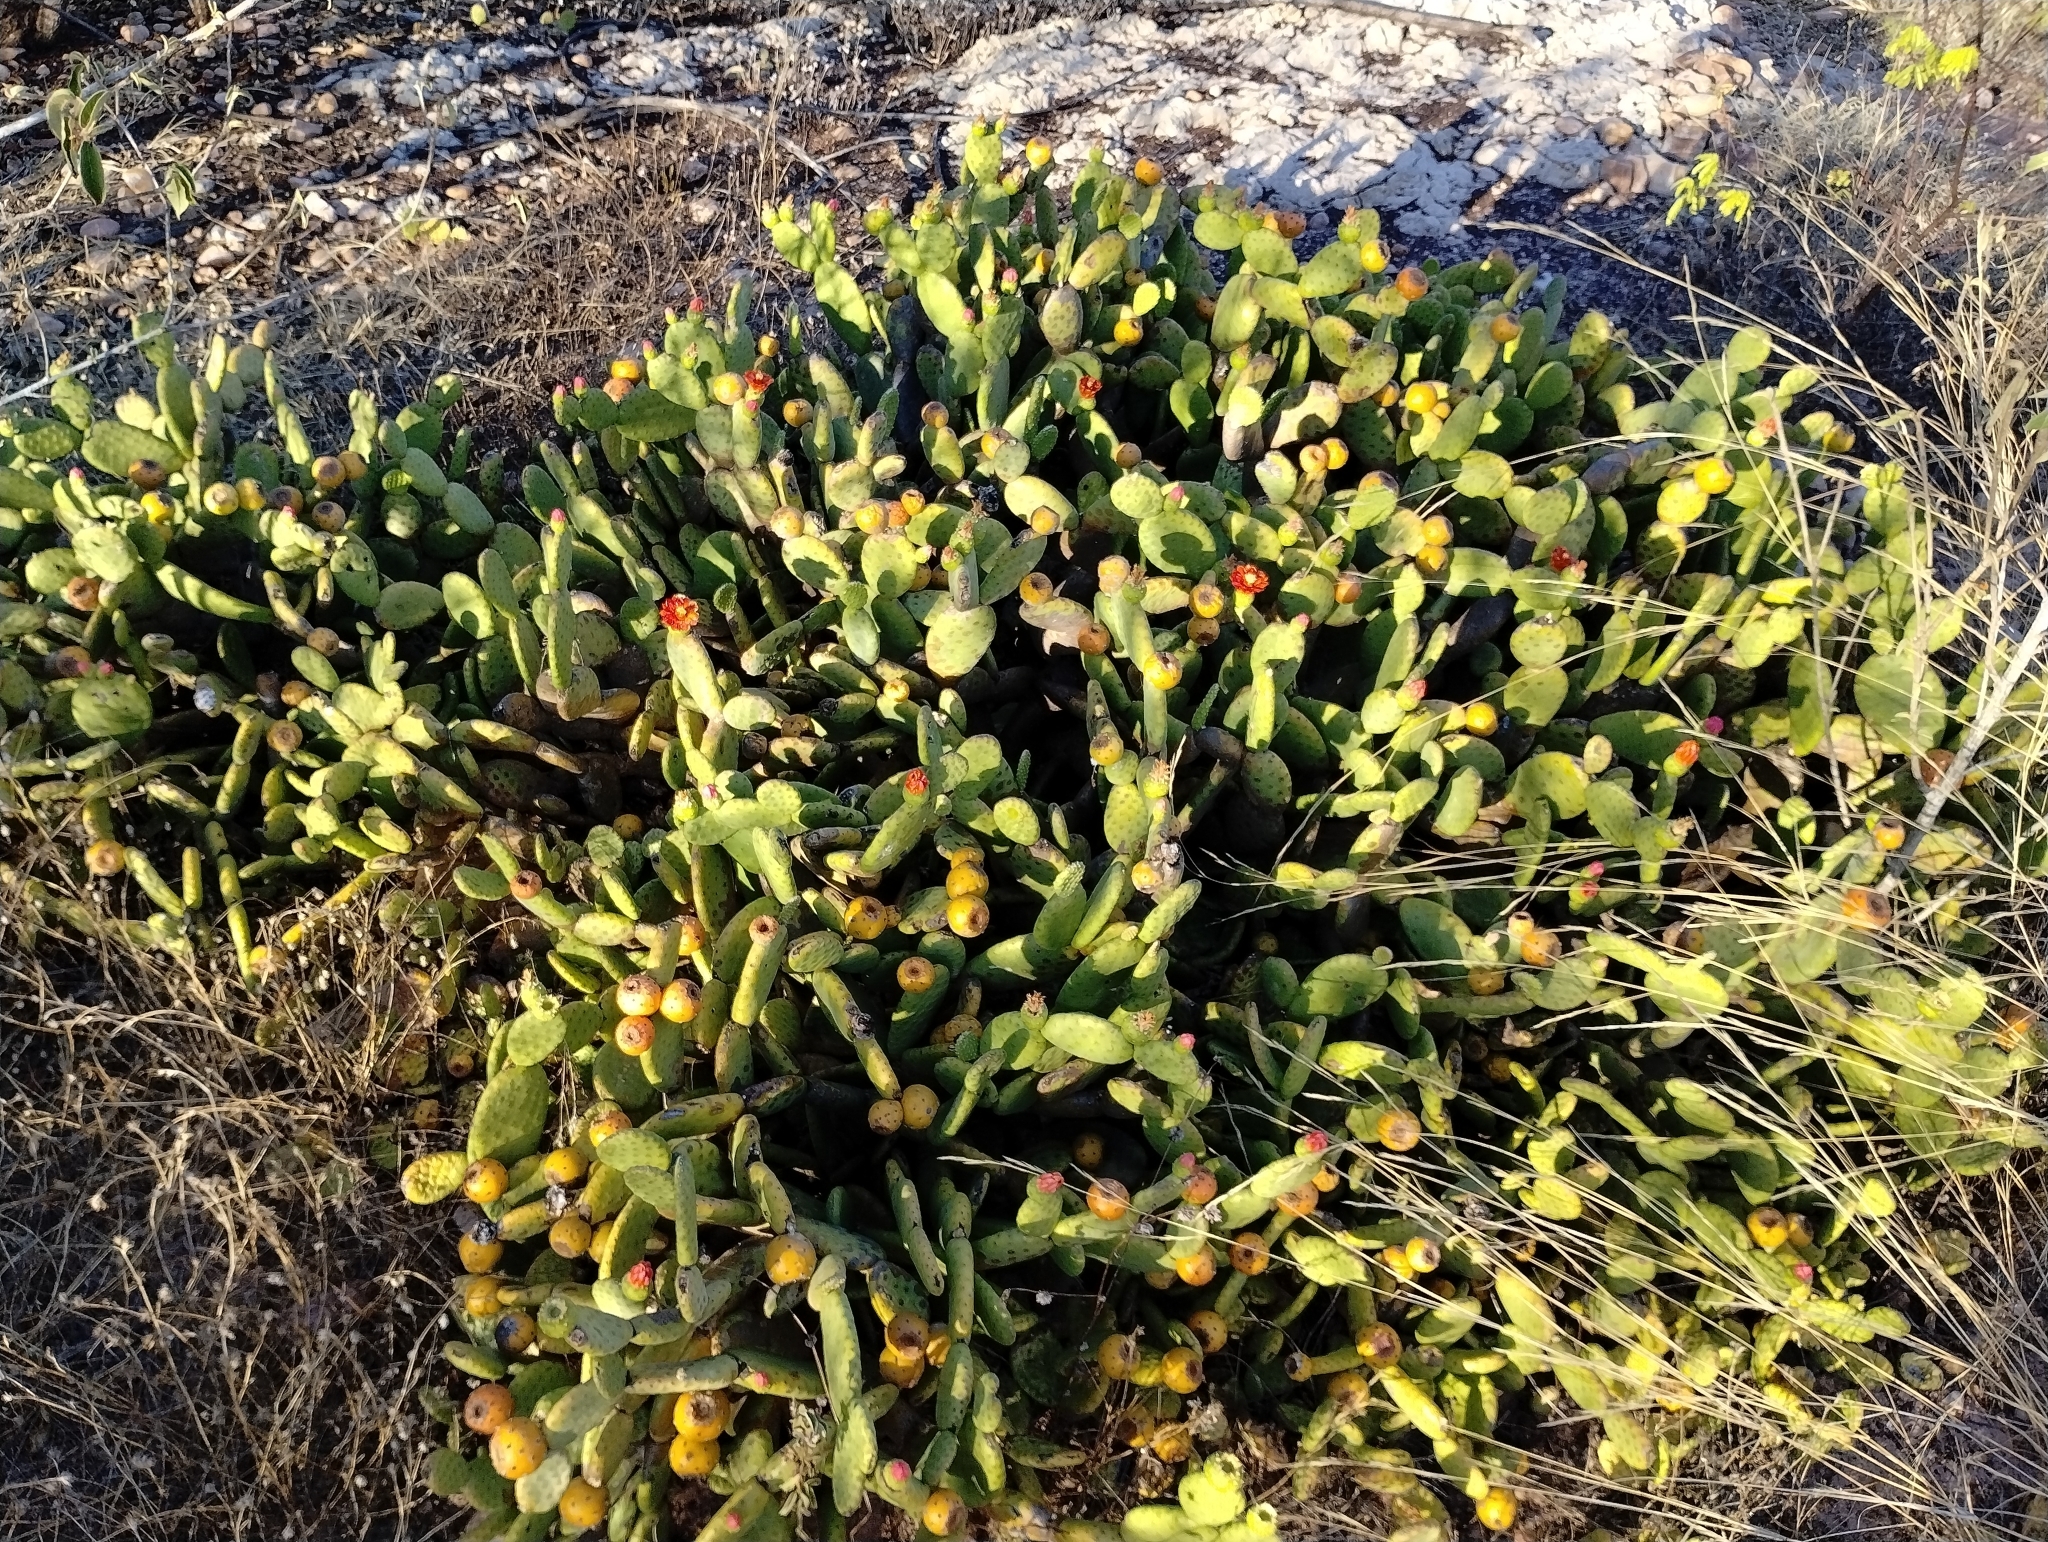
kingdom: Plantae
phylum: Tracheophyta
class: Magnoliopsida
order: Caryophyllales
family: Cactaceae
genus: Tacinga
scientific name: Tacinga inamoena
